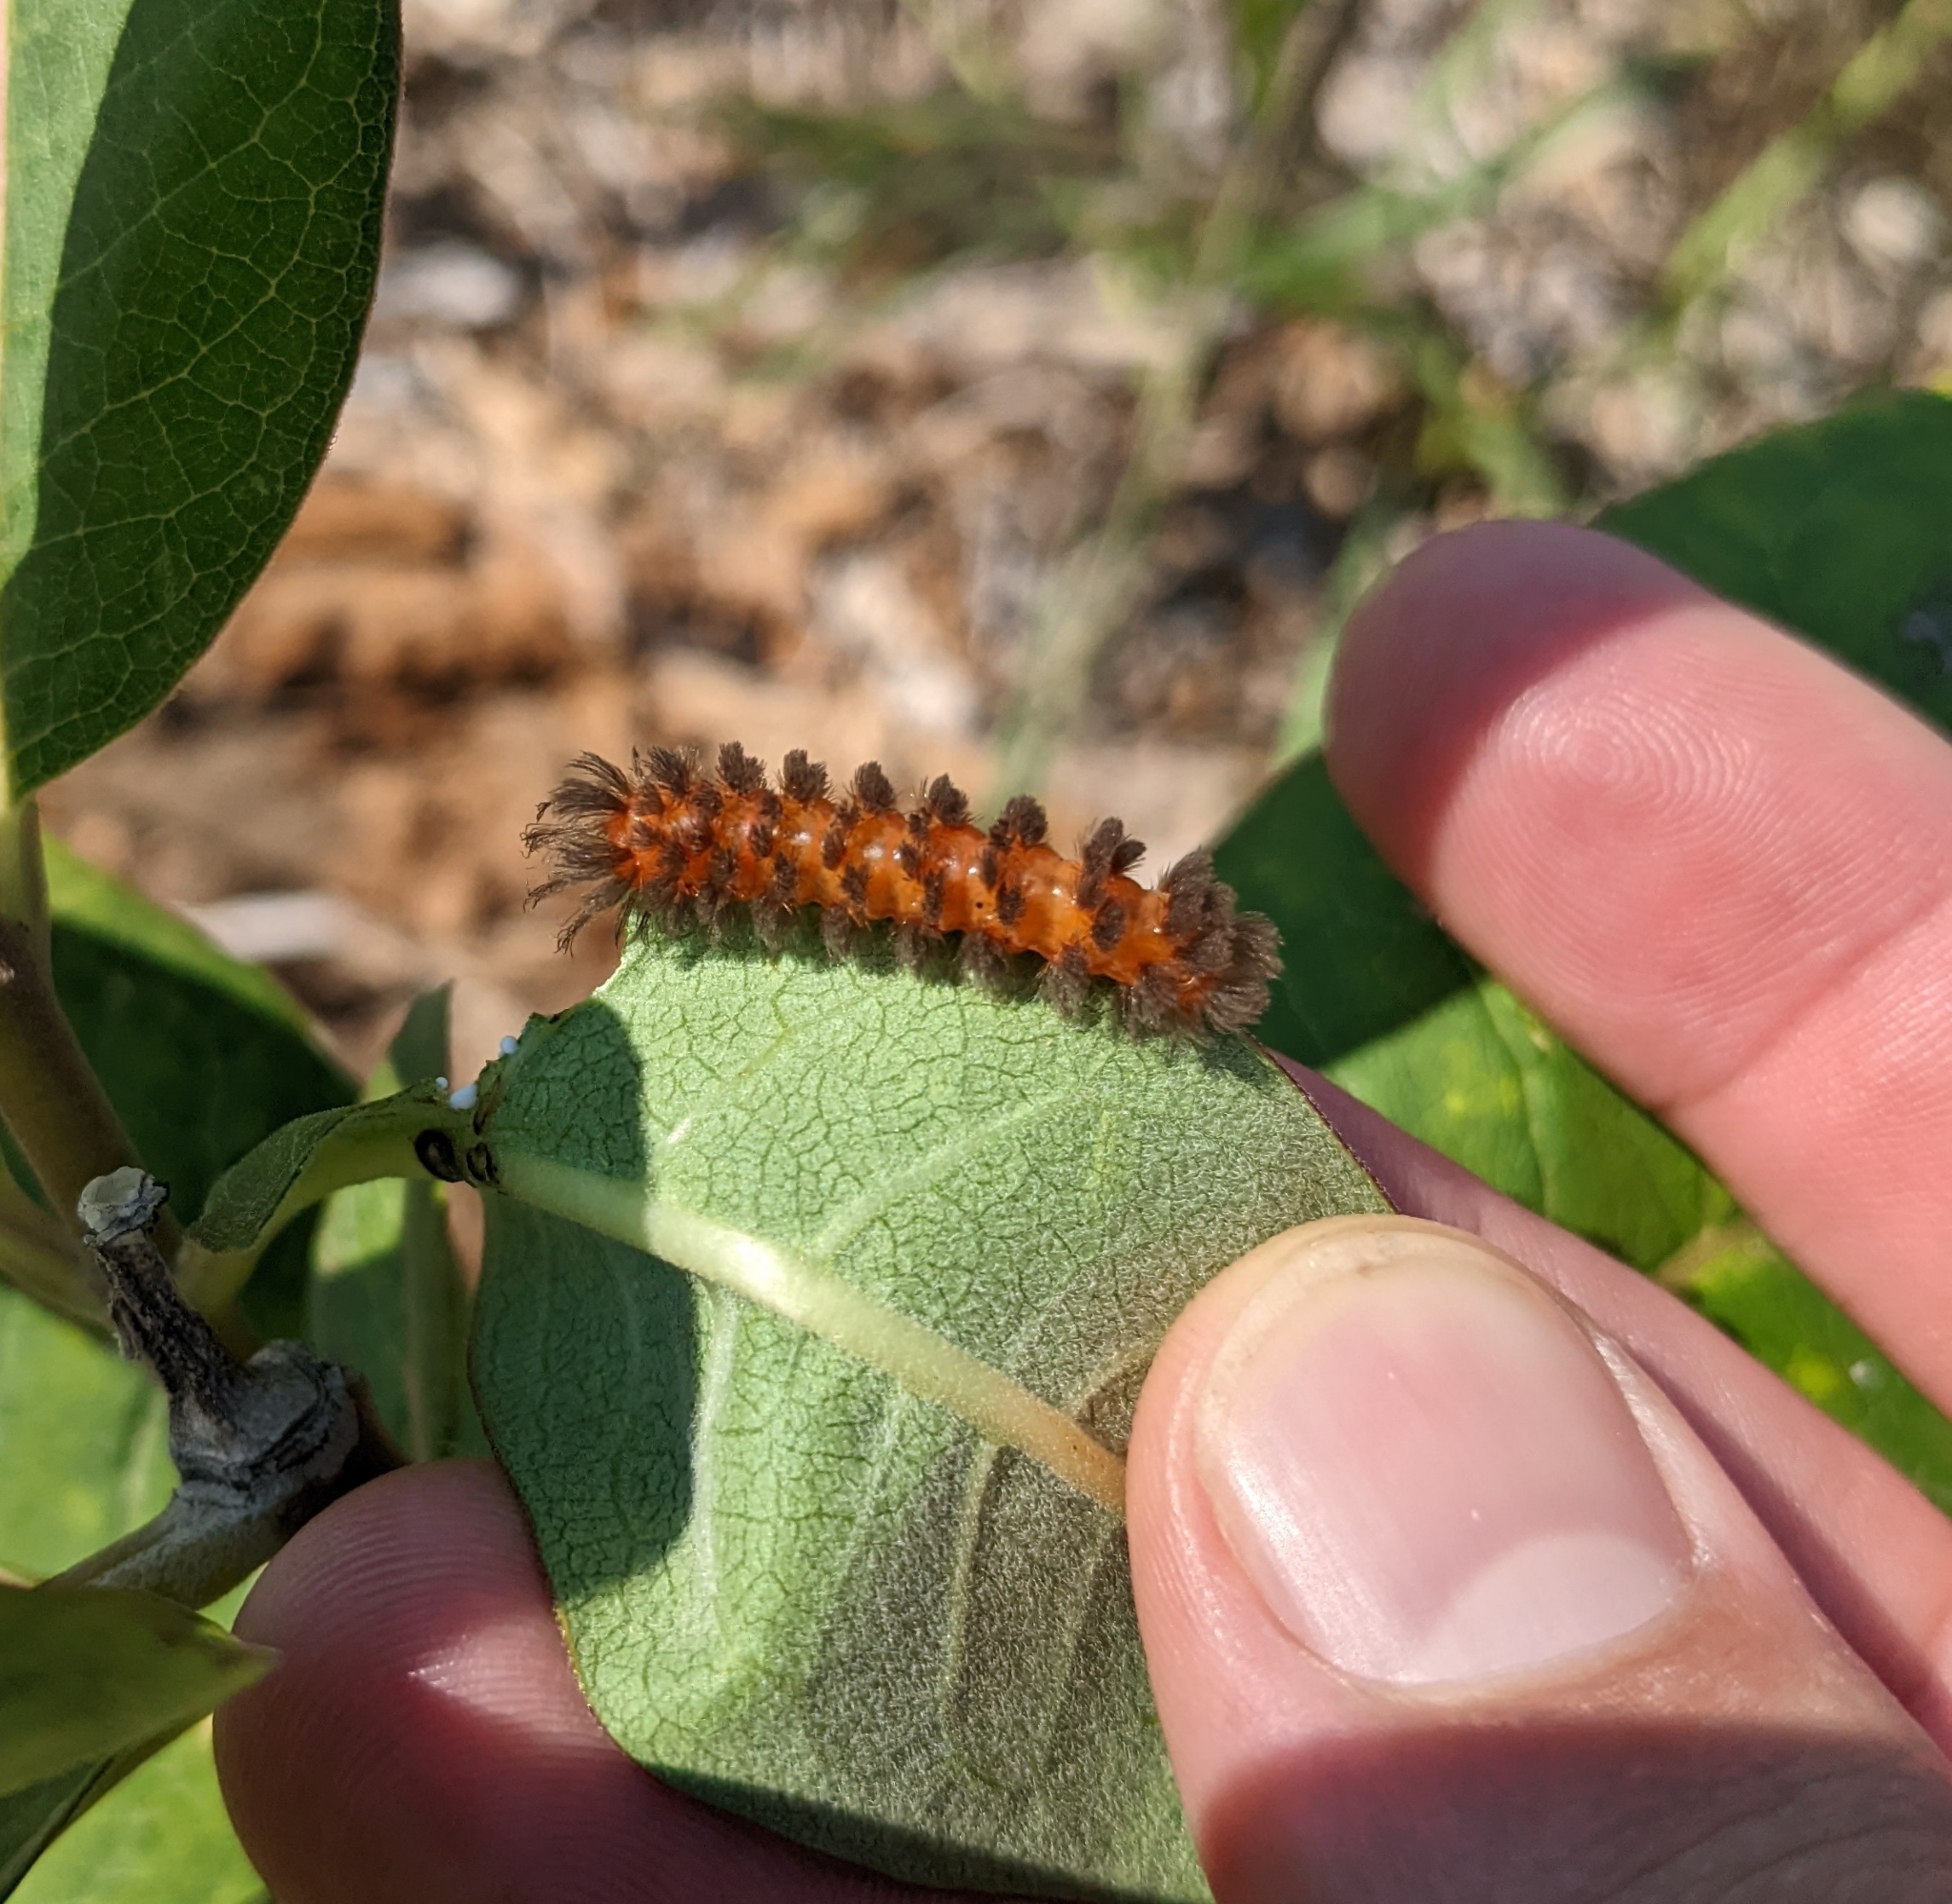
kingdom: Animalia
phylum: Arthropoda
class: Insecta
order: Lepidoptera
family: Erebidae
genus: Cycnia
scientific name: Cycnia collaris
